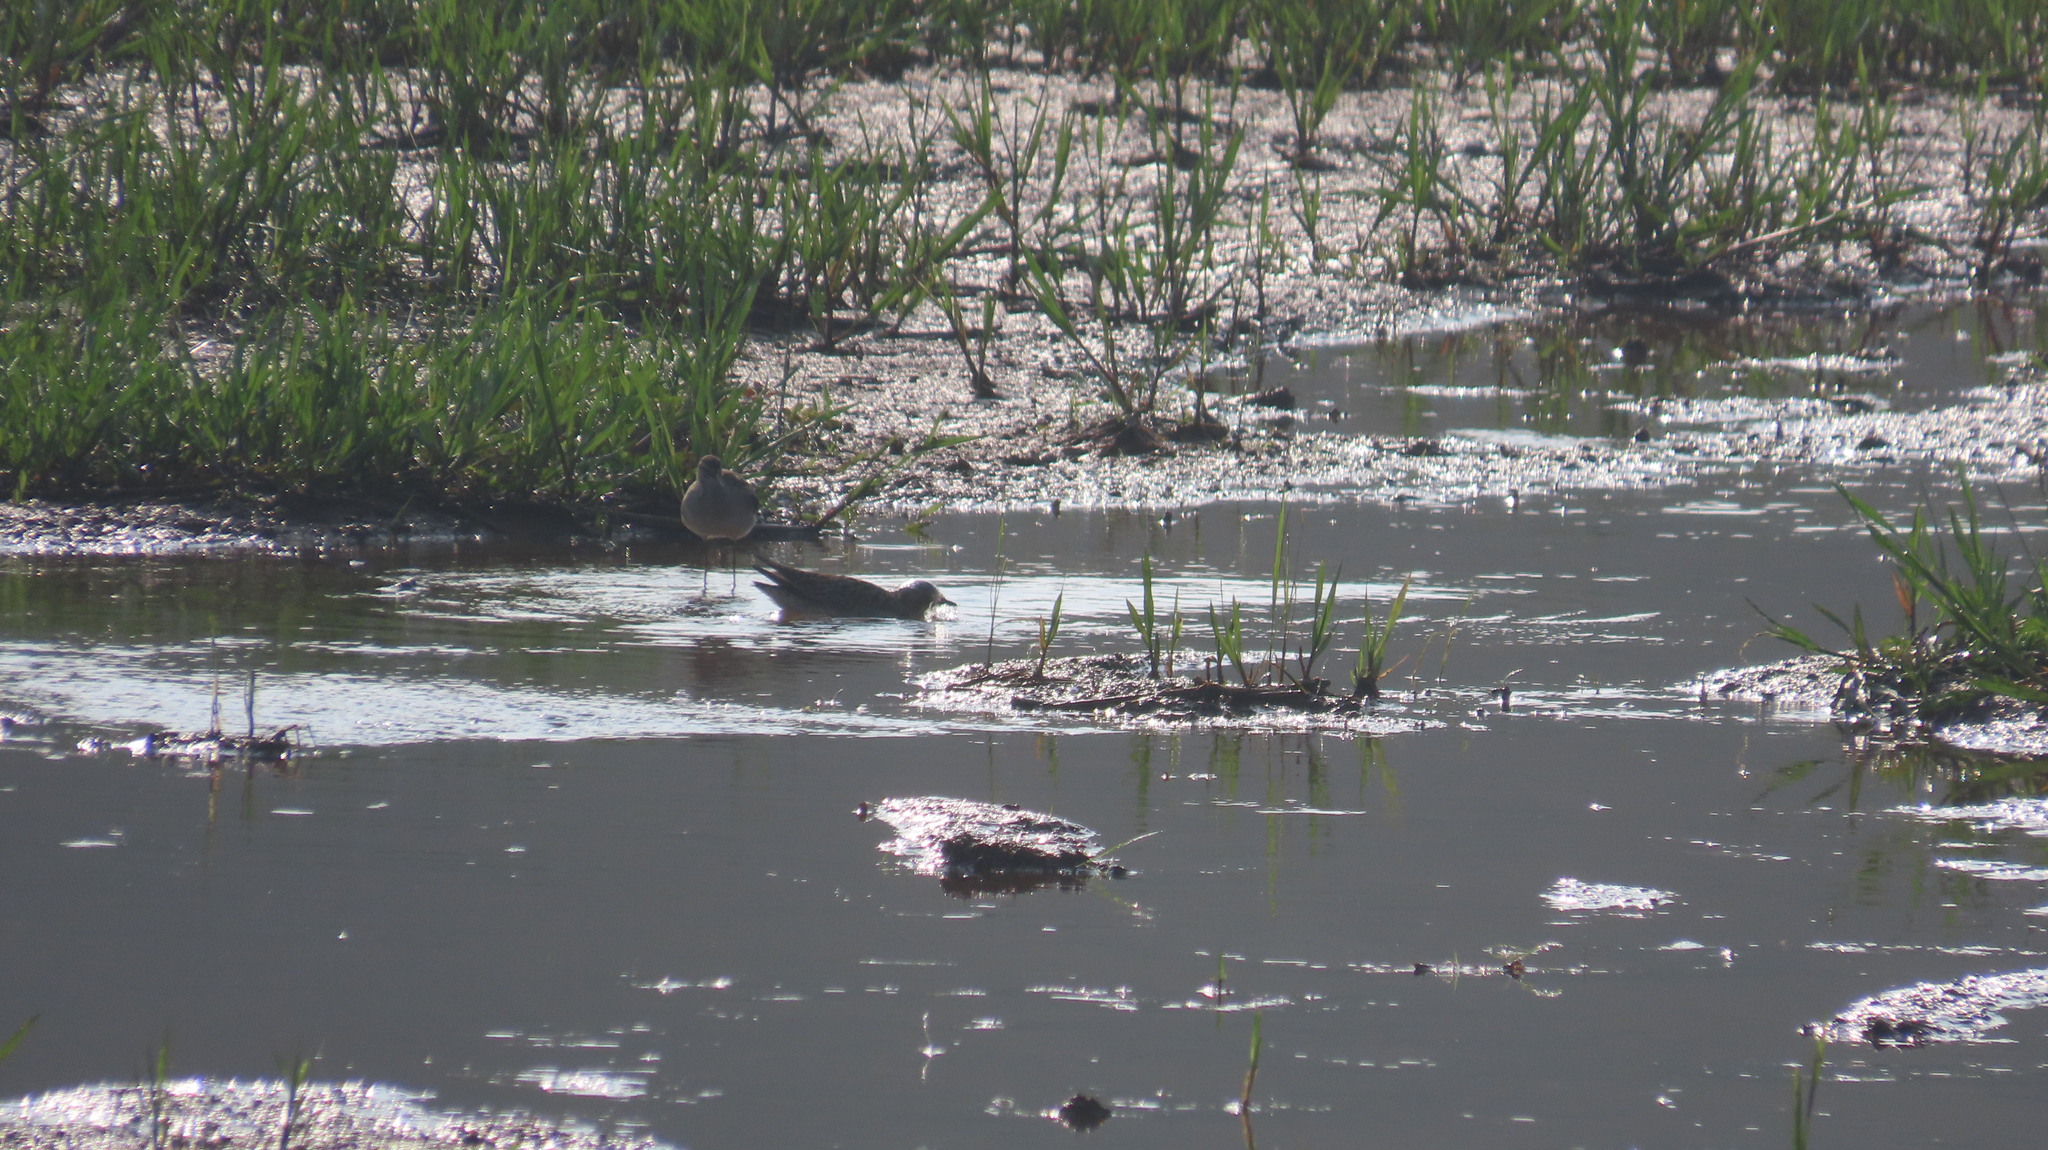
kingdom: Animalia
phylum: Chordata
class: Aves
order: Charadriiformes
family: Charadriidae
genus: Pluvialis
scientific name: Pluvialis fulva
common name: Pacific golden plover
